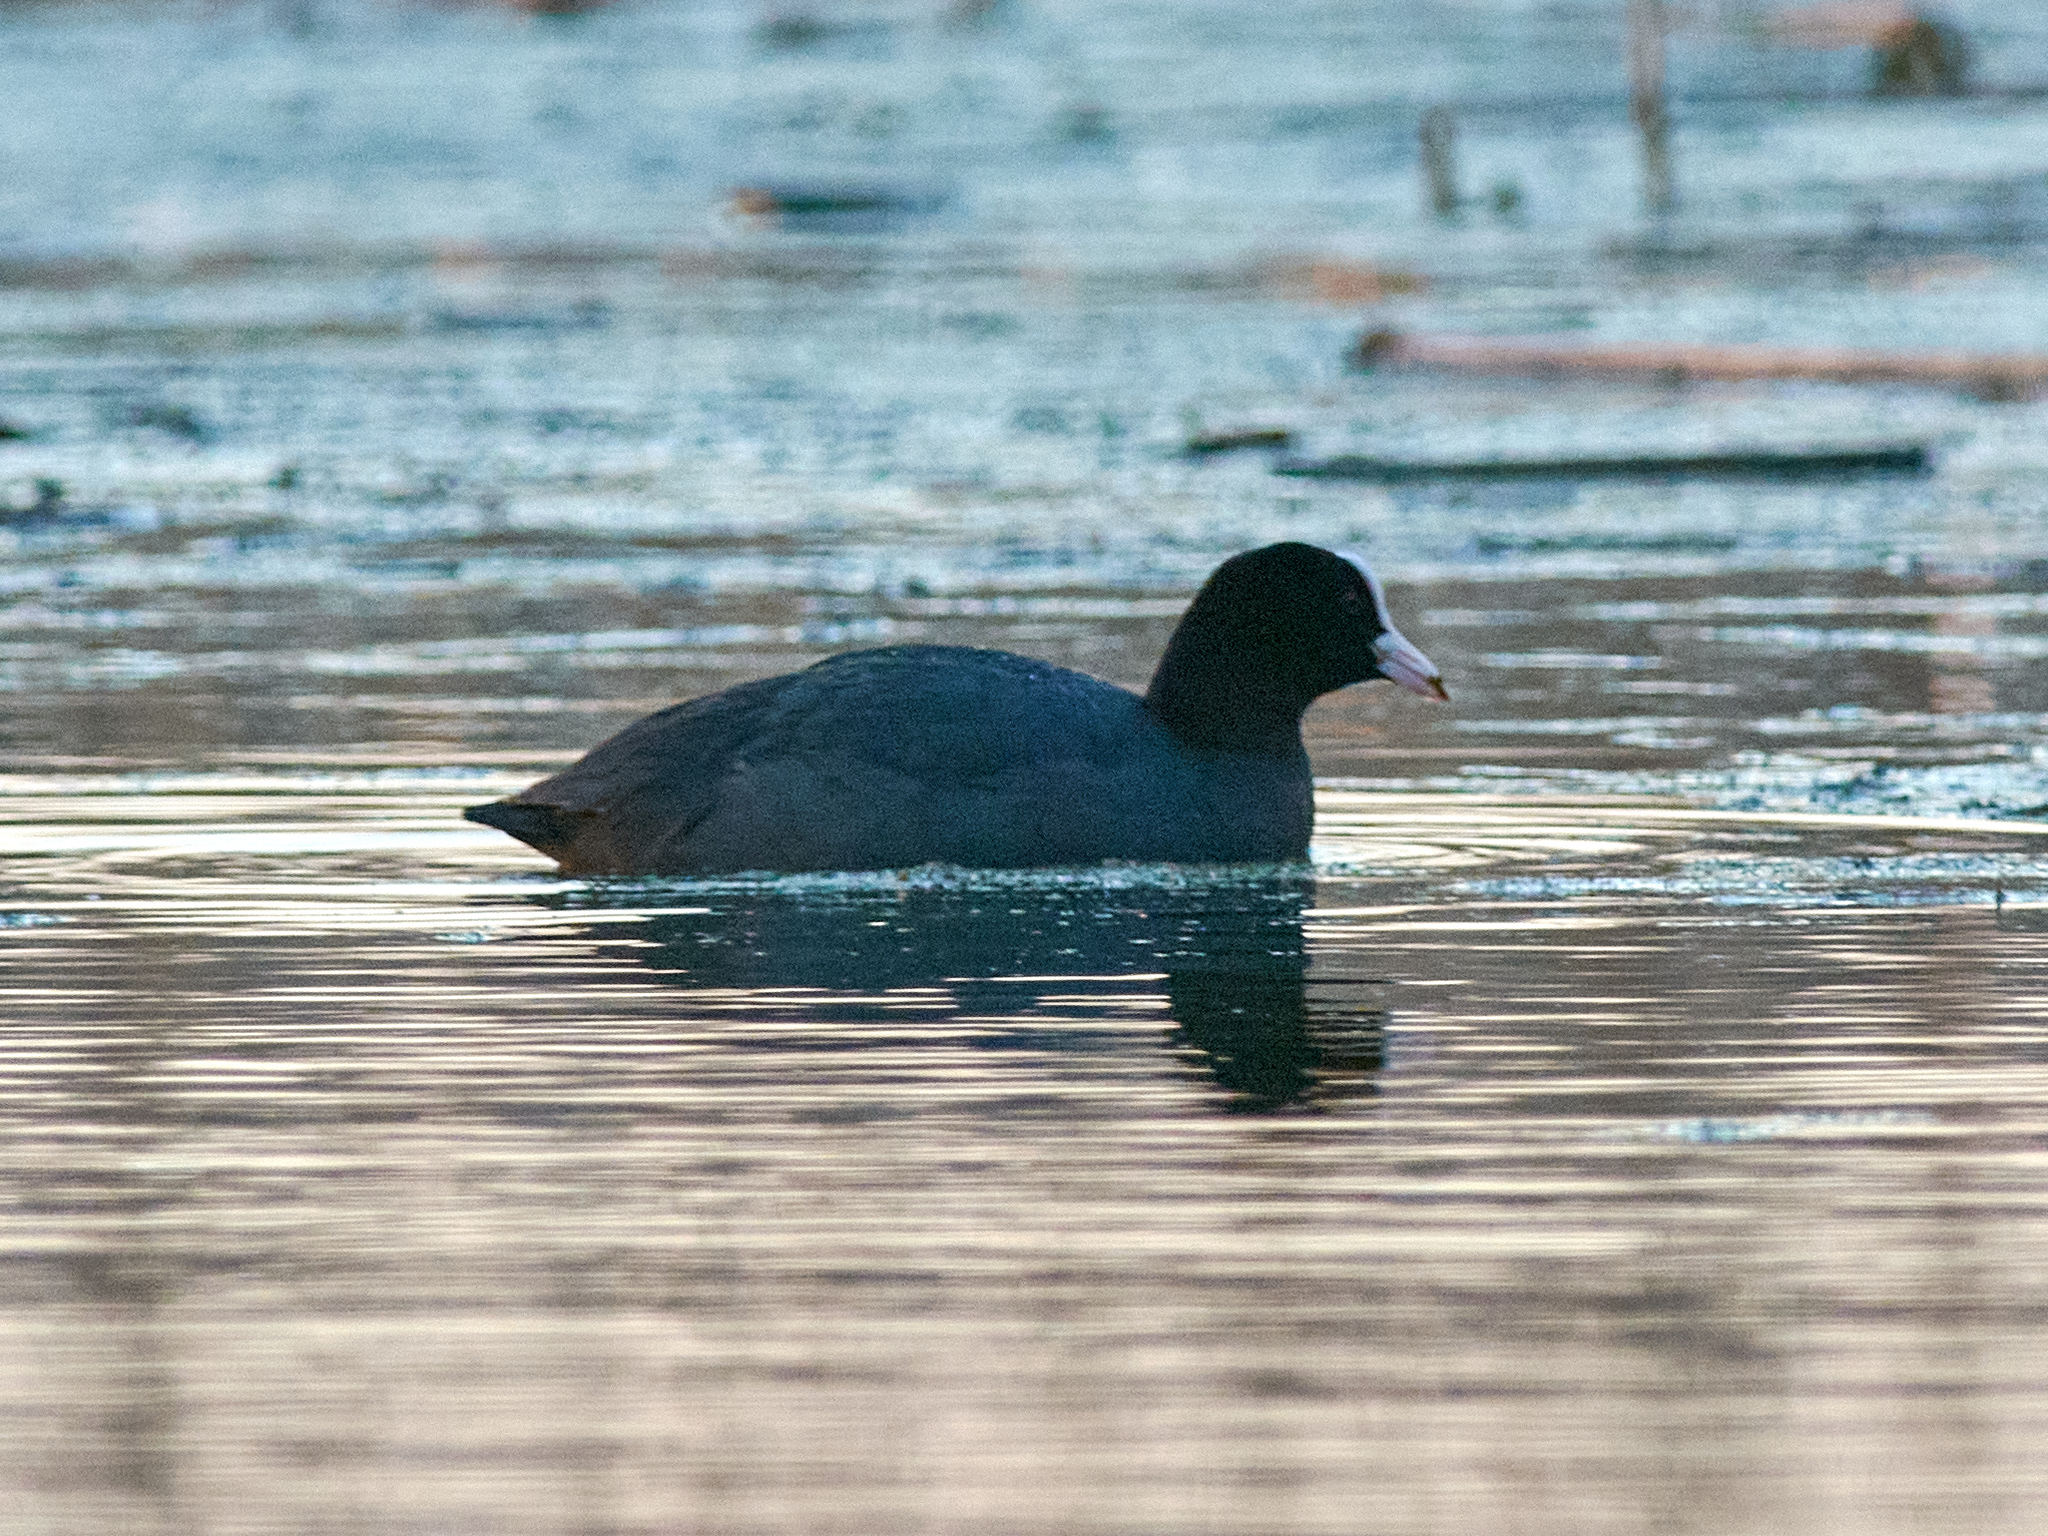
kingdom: Animalia
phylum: Chordata
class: Aves
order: Gruiformes
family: Rallidae
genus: Fulica
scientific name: Fulica atra
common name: Eurasian coot
